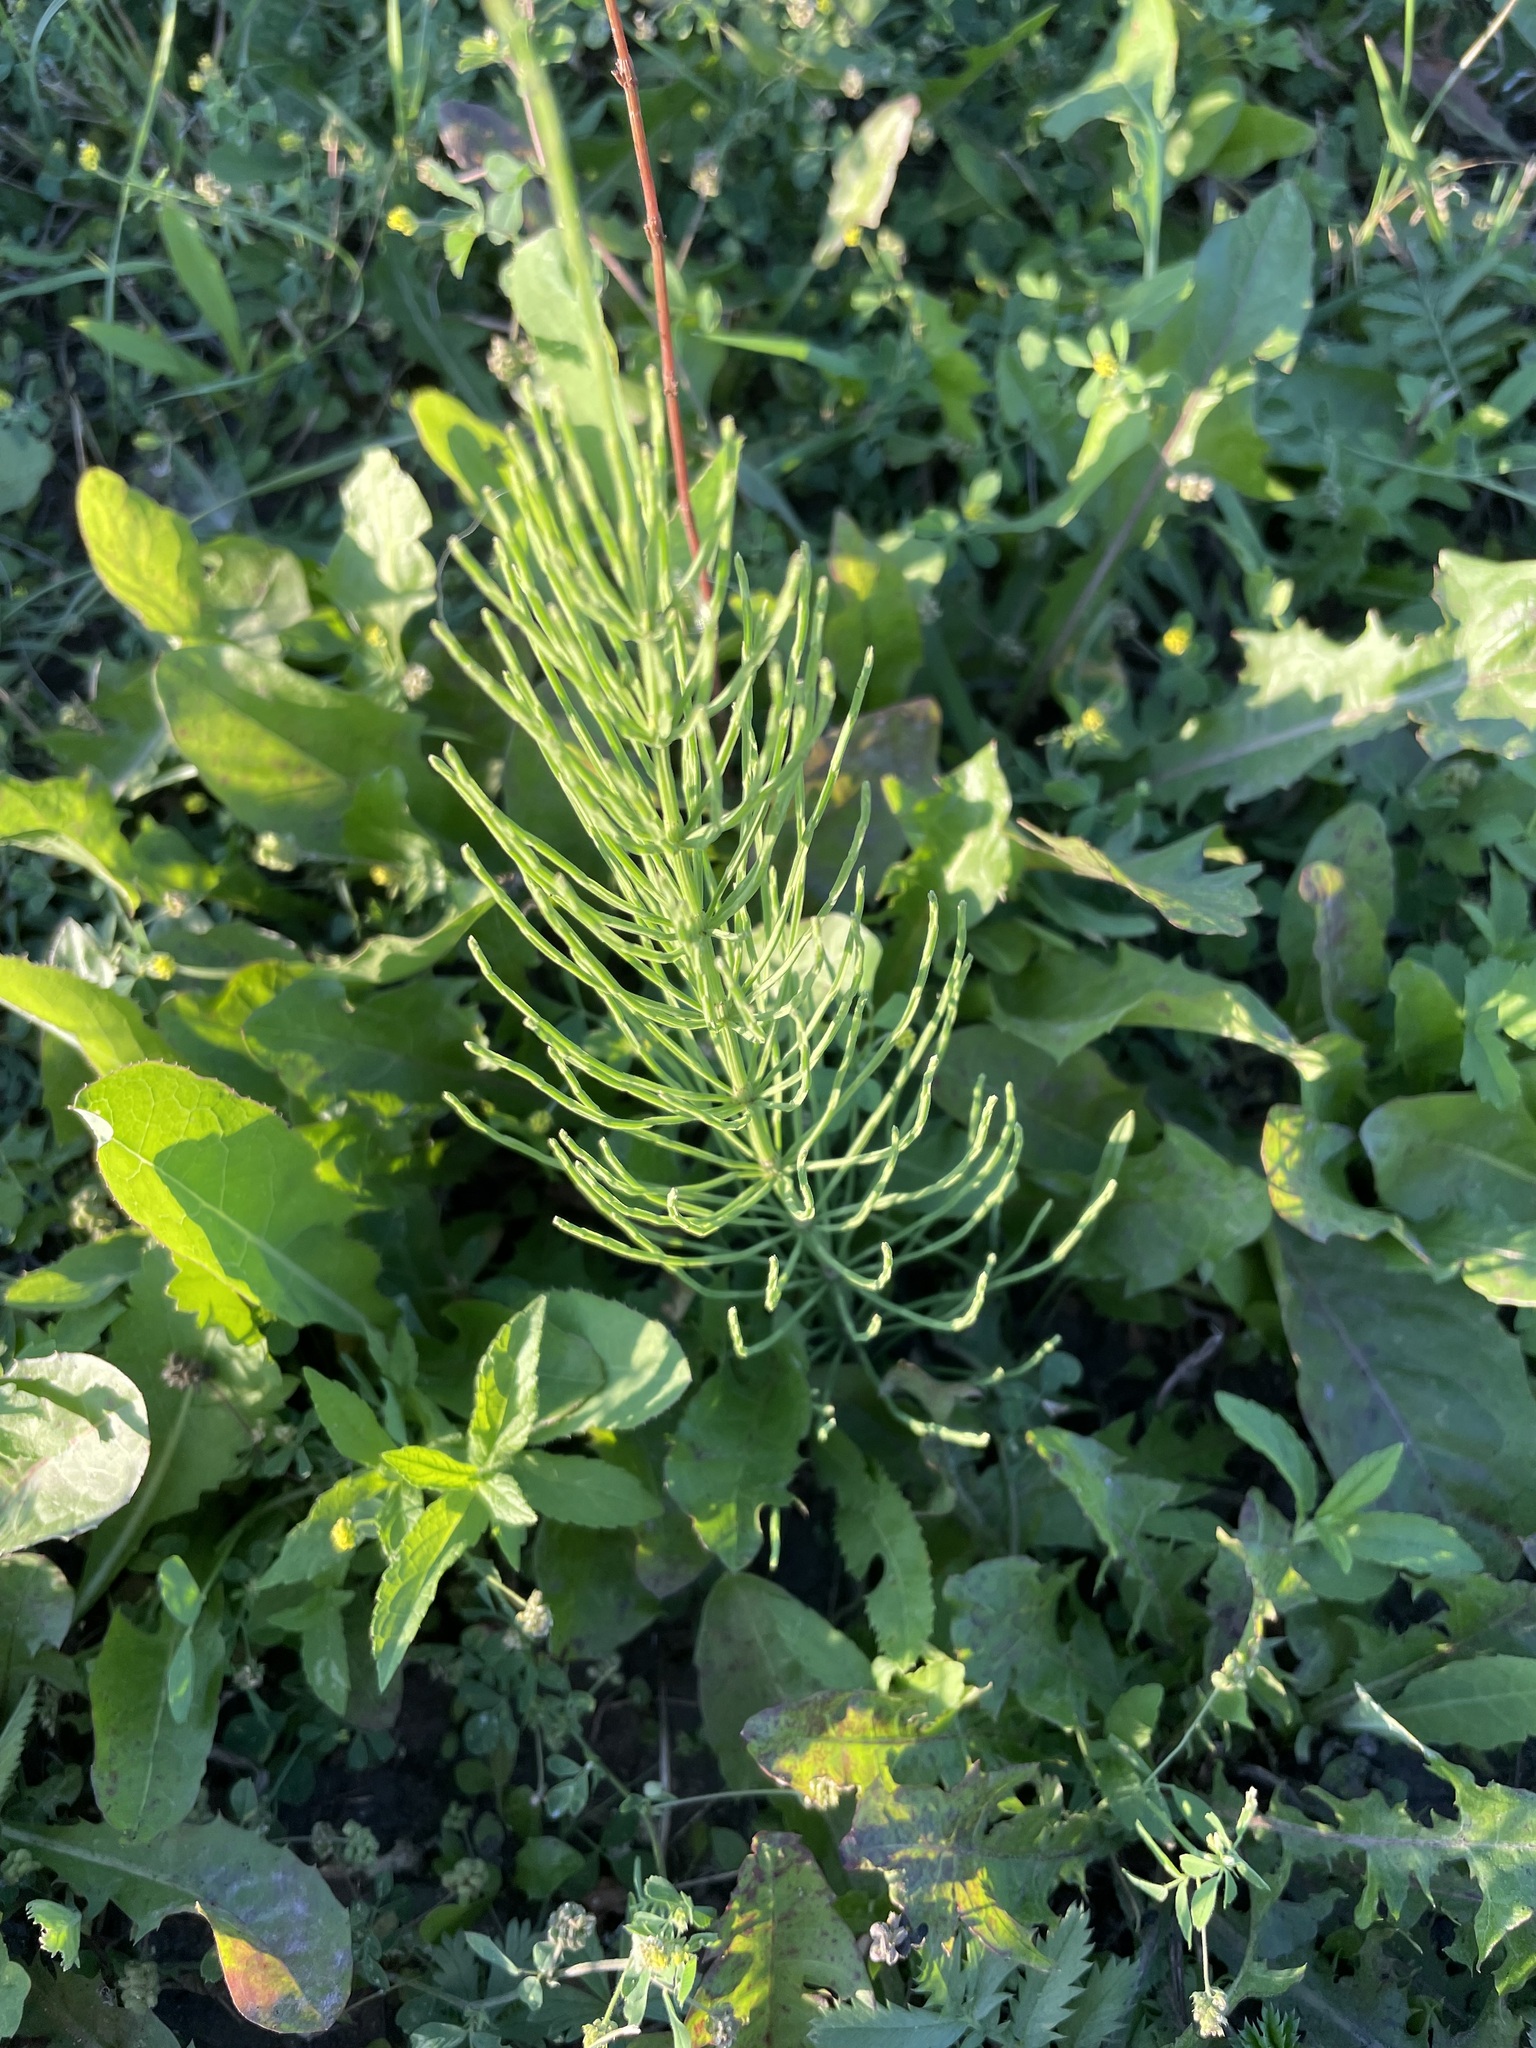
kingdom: Plantae
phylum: Tracheophyta
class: Polypodiopsida
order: Equisetales
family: Equisetaceae
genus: Equisetum
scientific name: Equisetum arvense
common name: Field horsetail
